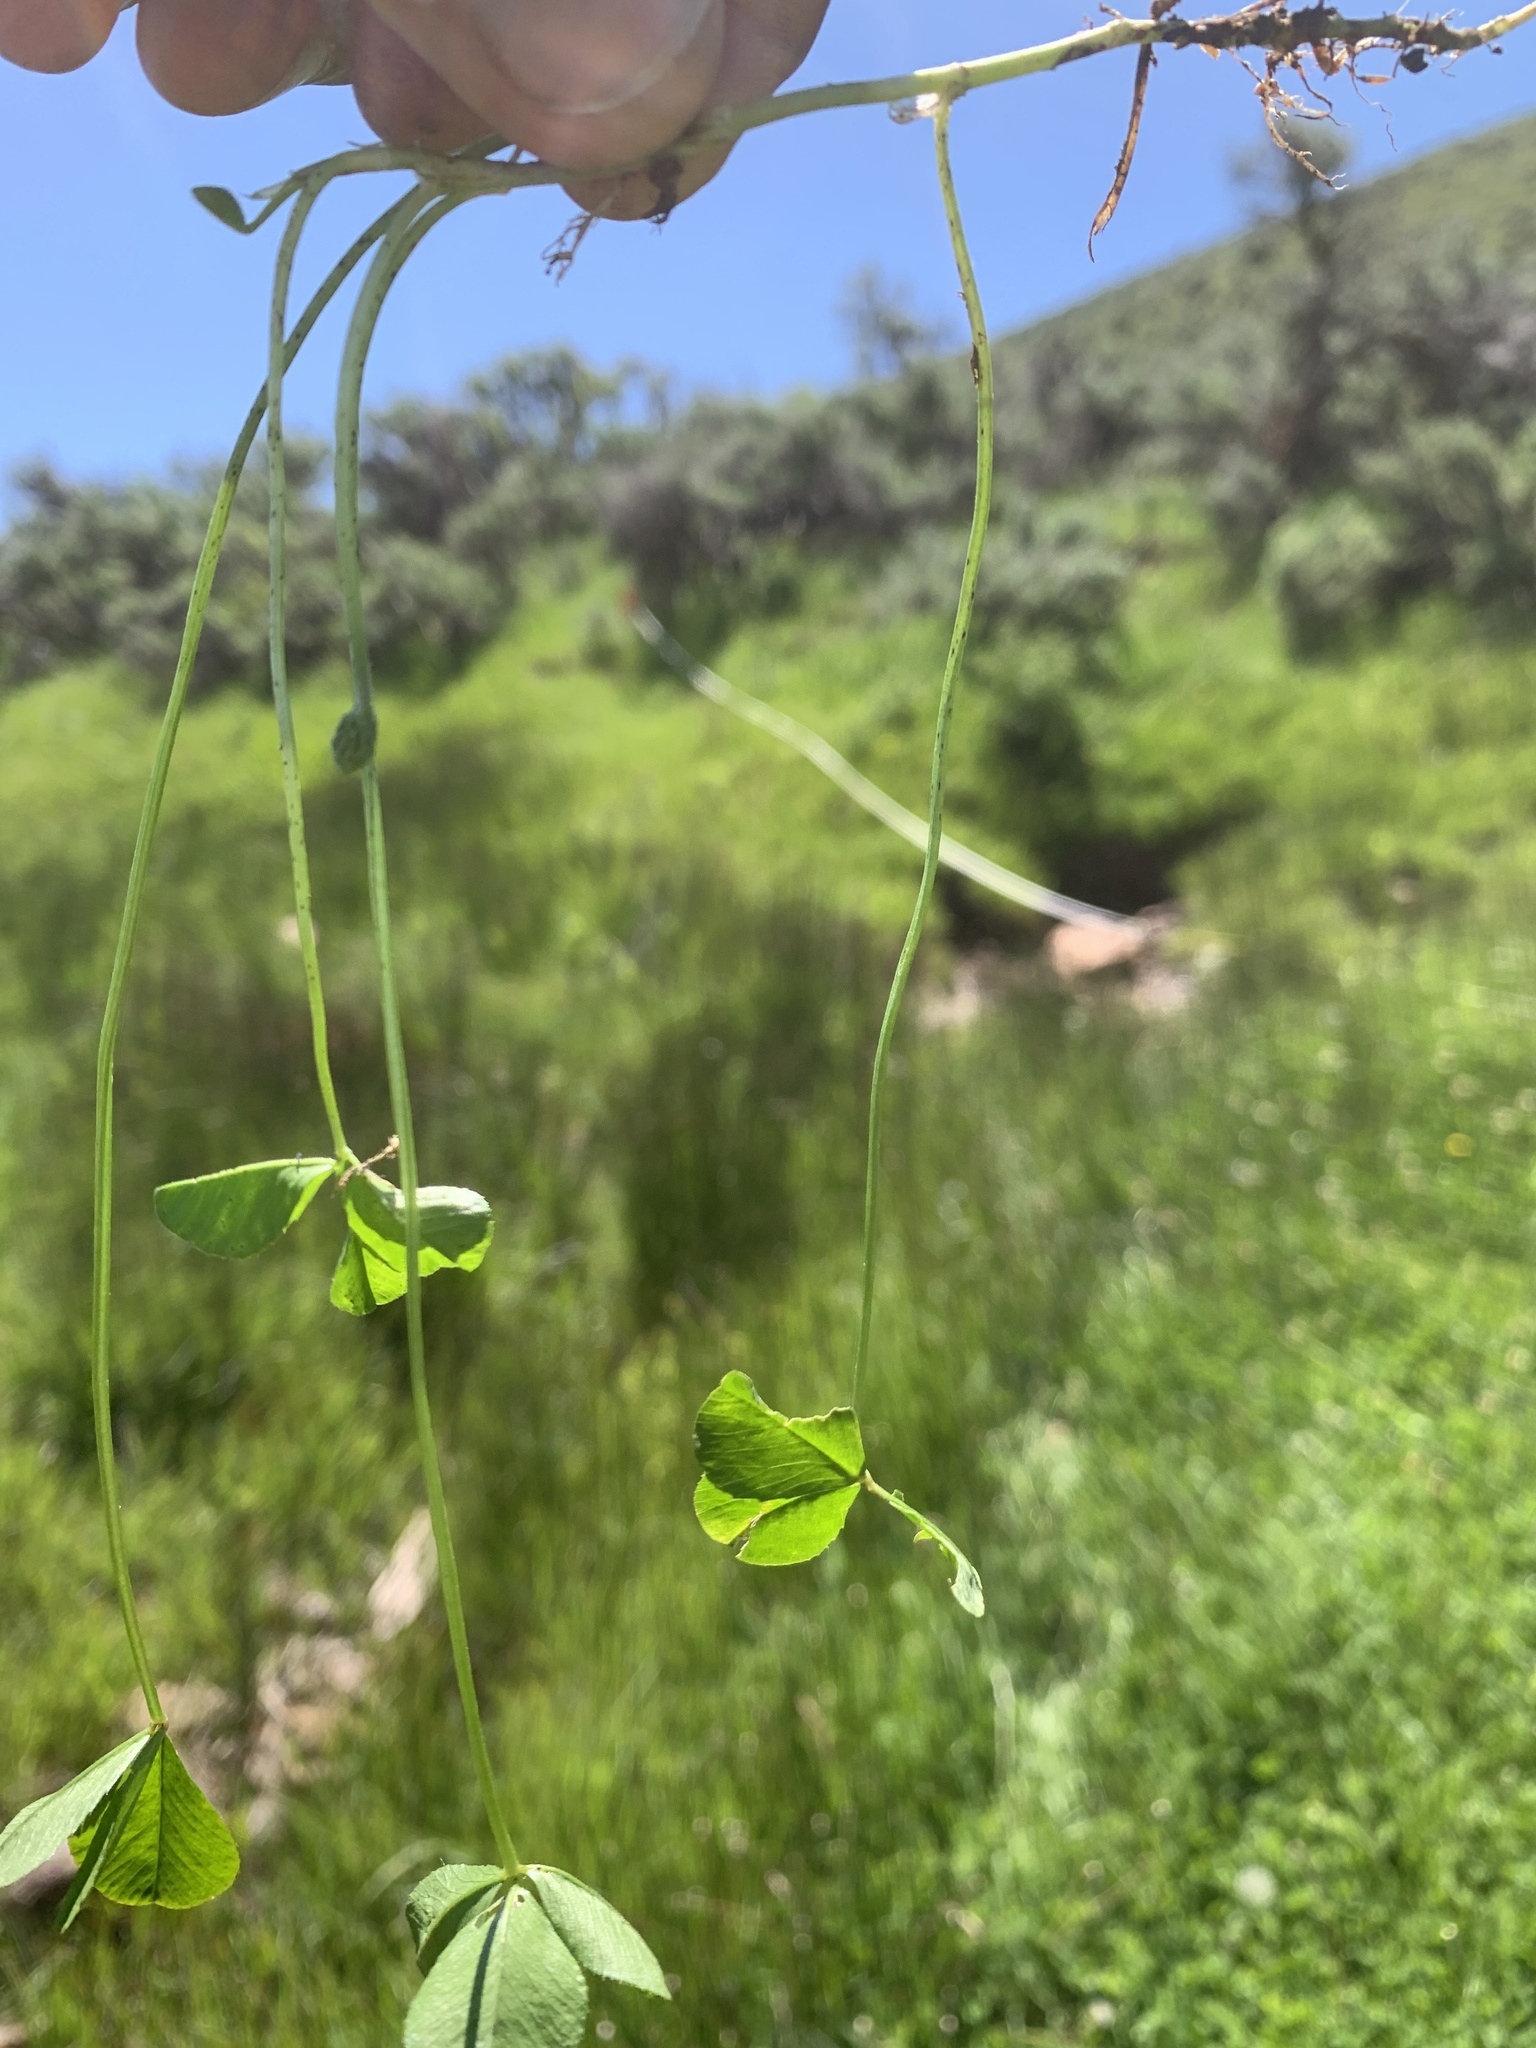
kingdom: Plantae
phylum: Tracheophyta
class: Magnoliopsida
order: Fabales
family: Fabaceae
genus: Trifolium
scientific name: Trifolium repens
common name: White clover
